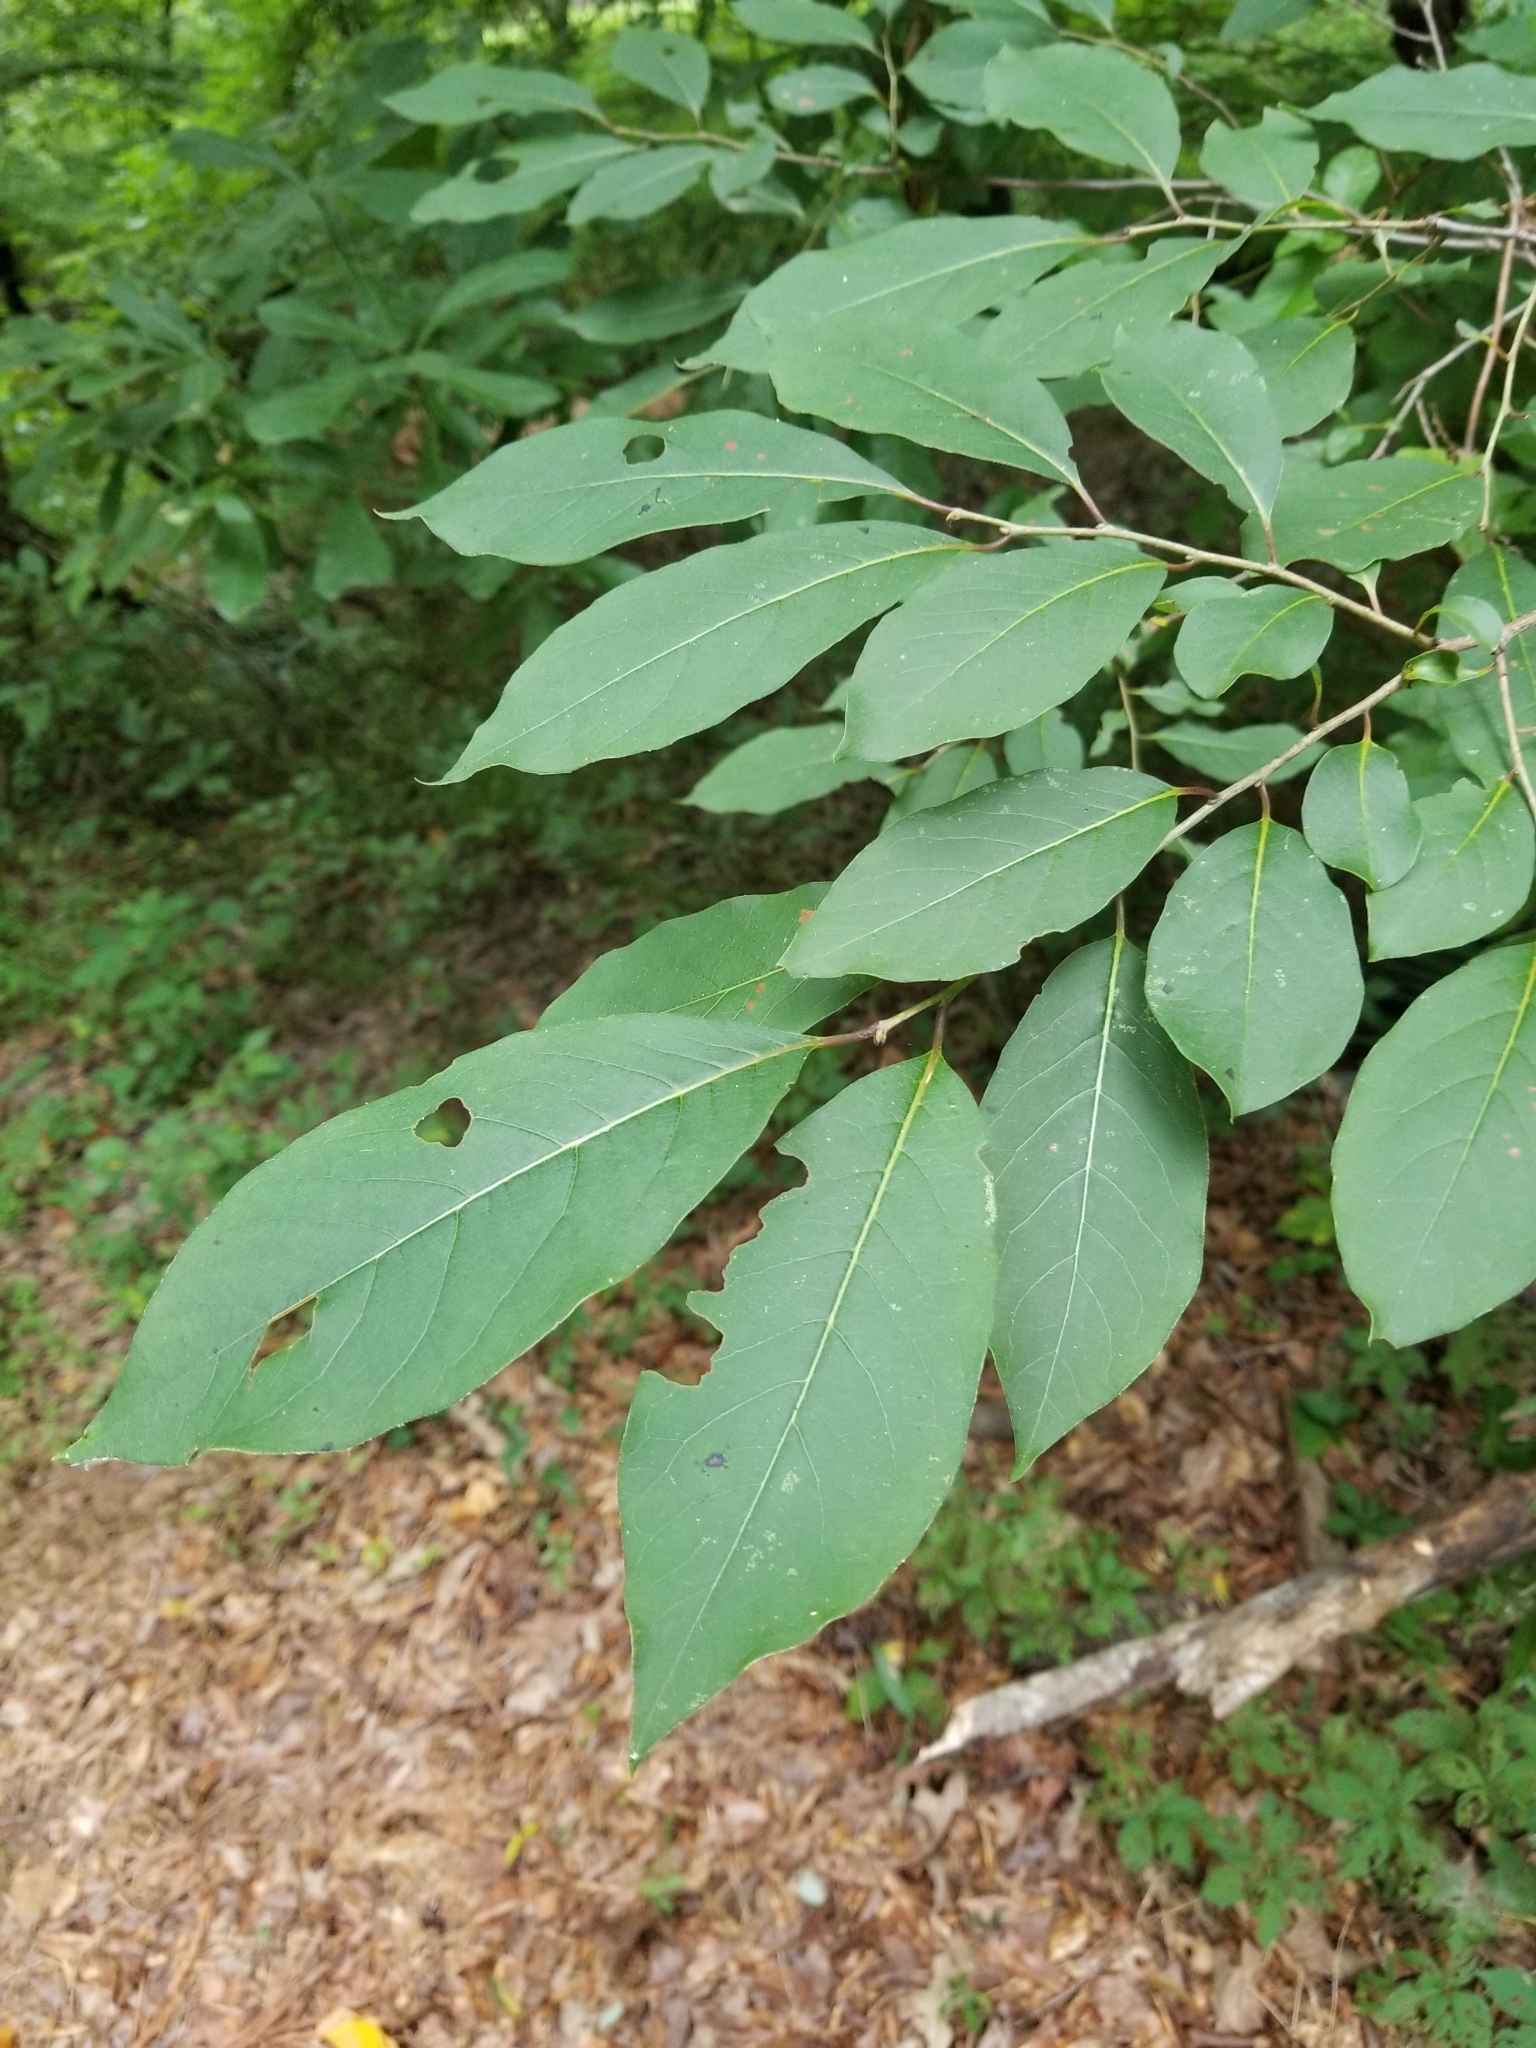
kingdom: Plantae
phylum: Tracheophyta
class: Magnoliopsida
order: Ericales
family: Ebenaceae
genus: Diospyros
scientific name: Diospyros virginiana
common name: Persimmon
